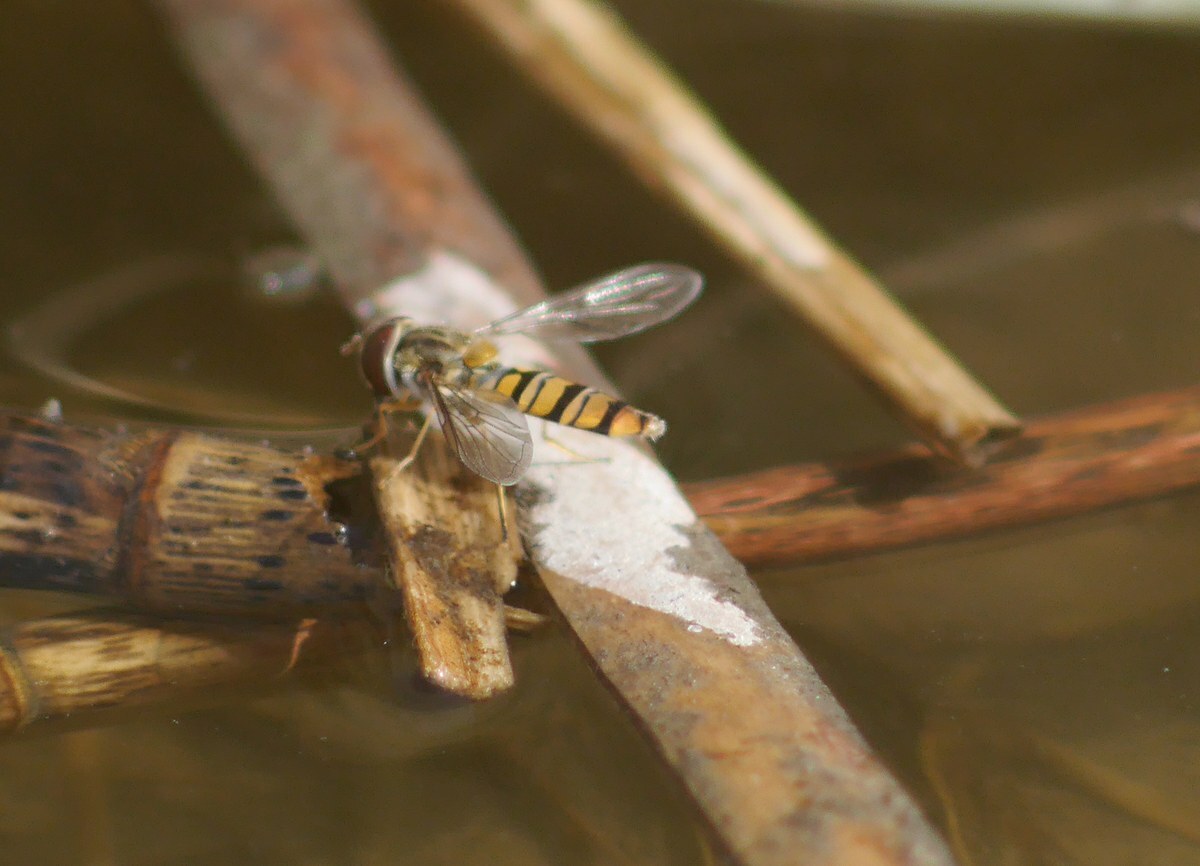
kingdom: Animalia
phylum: Arthropoda
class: Insecta
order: Diptera
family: Syrphidae
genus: Episyrphus
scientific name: Episyrphus balteatus
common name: Marmalade hoverfly
